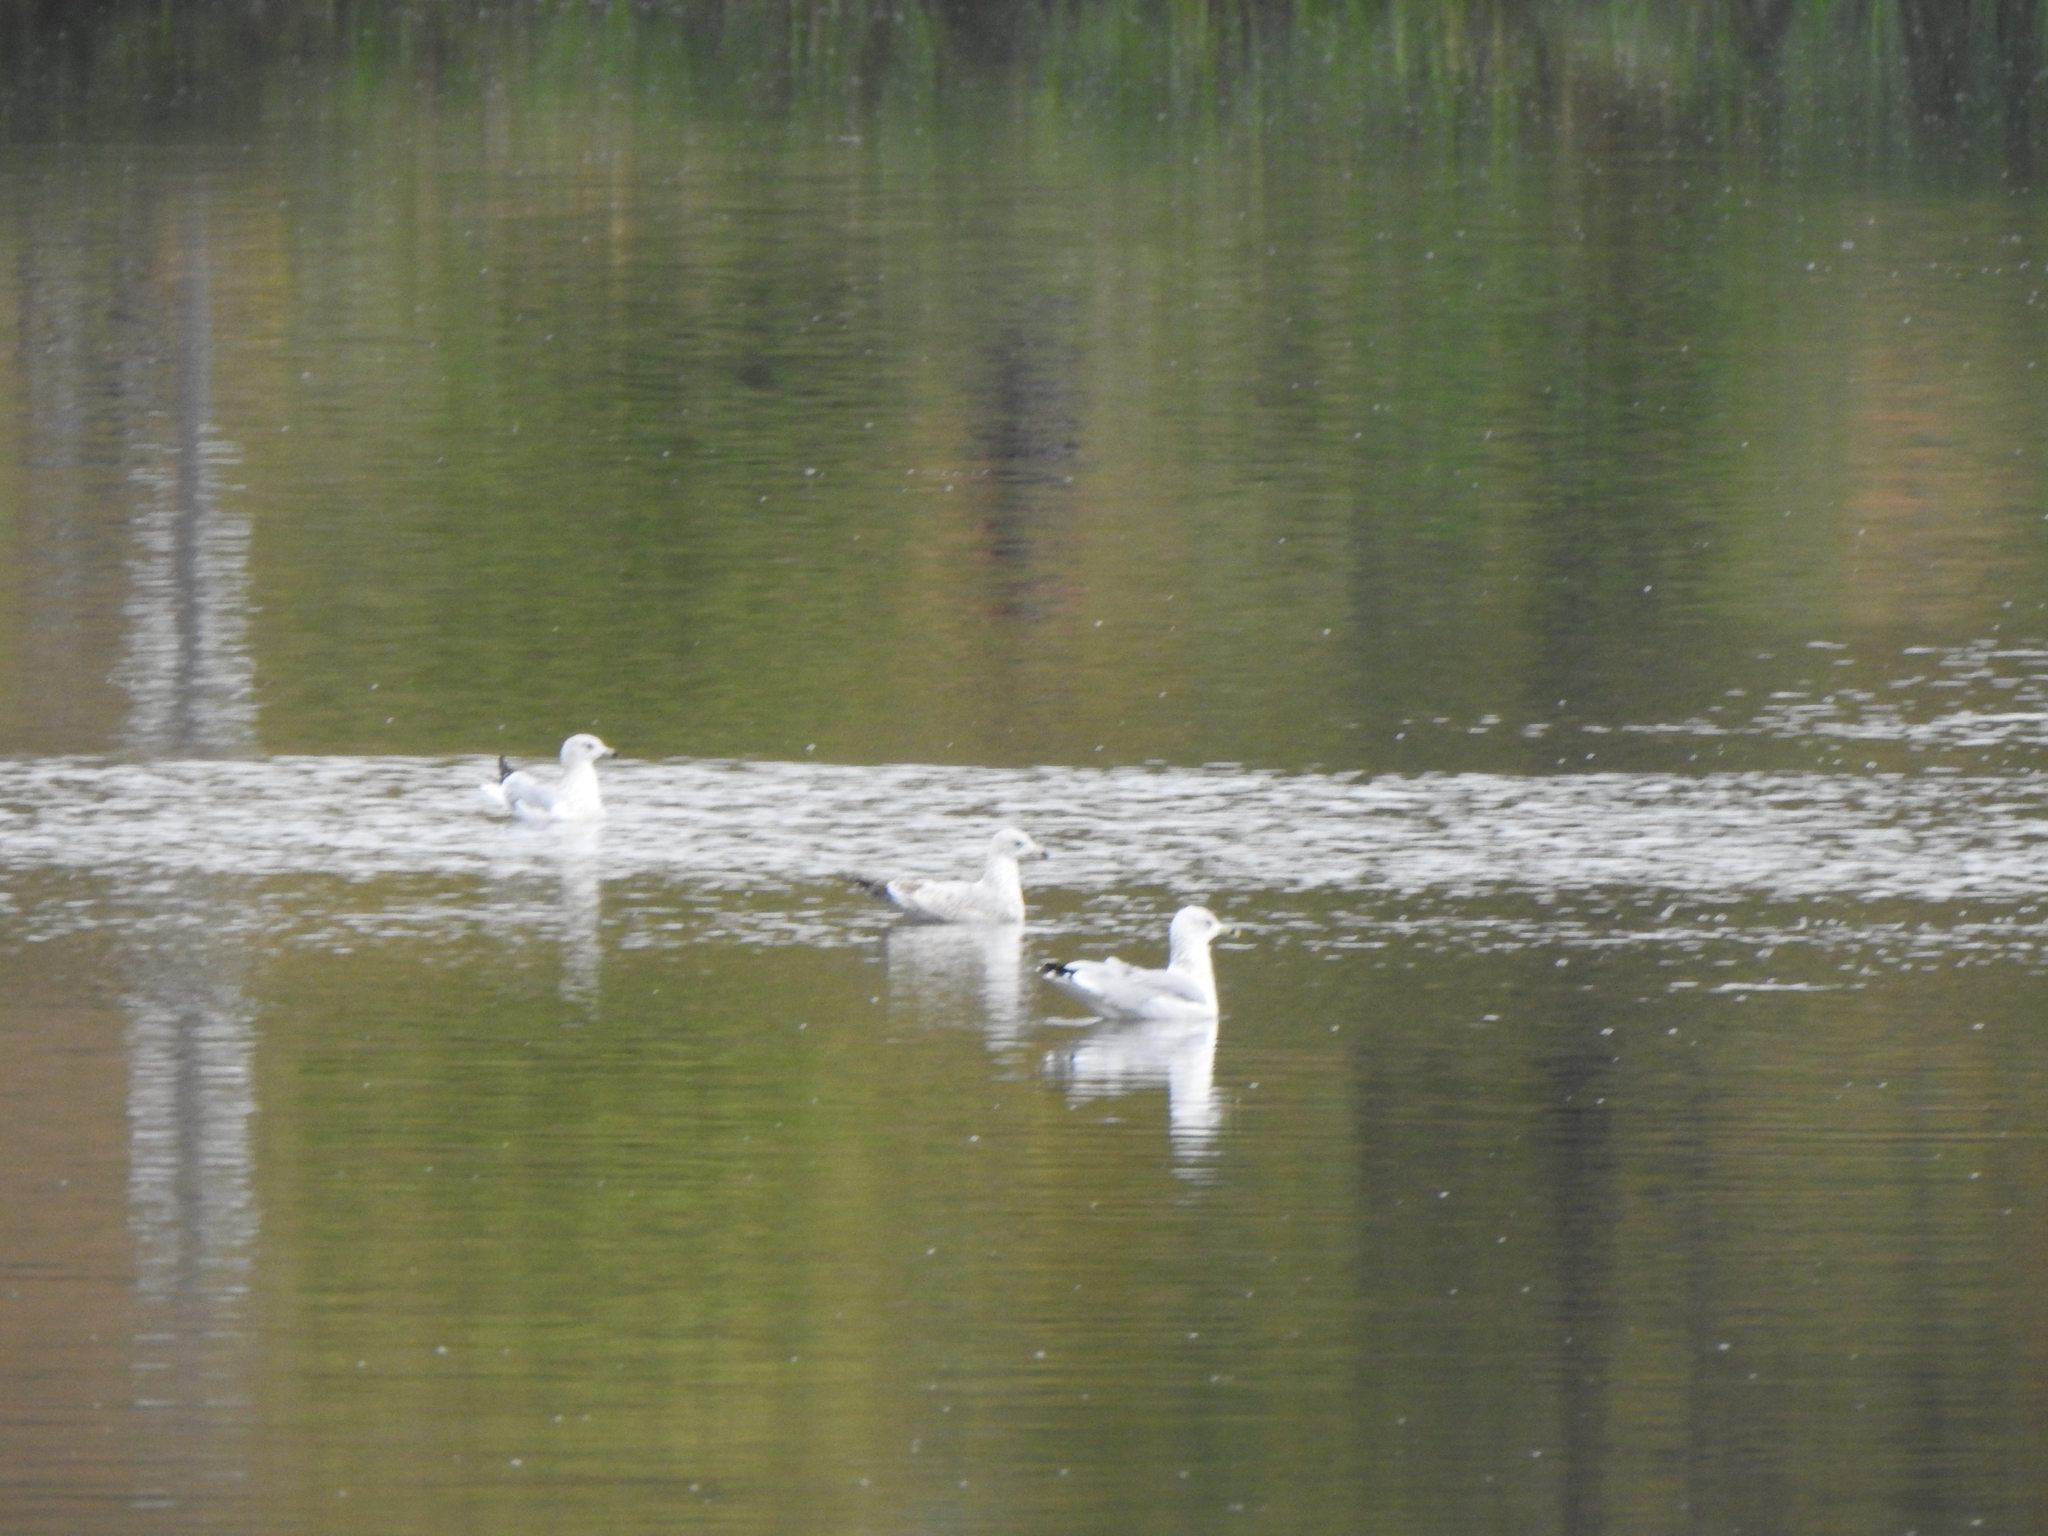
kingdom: Animalia
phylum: Chordata
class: Aves
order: Charadriiformes
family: Laridae
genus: Larus
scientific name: Larus delawarensis
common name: Ring-billed gull
